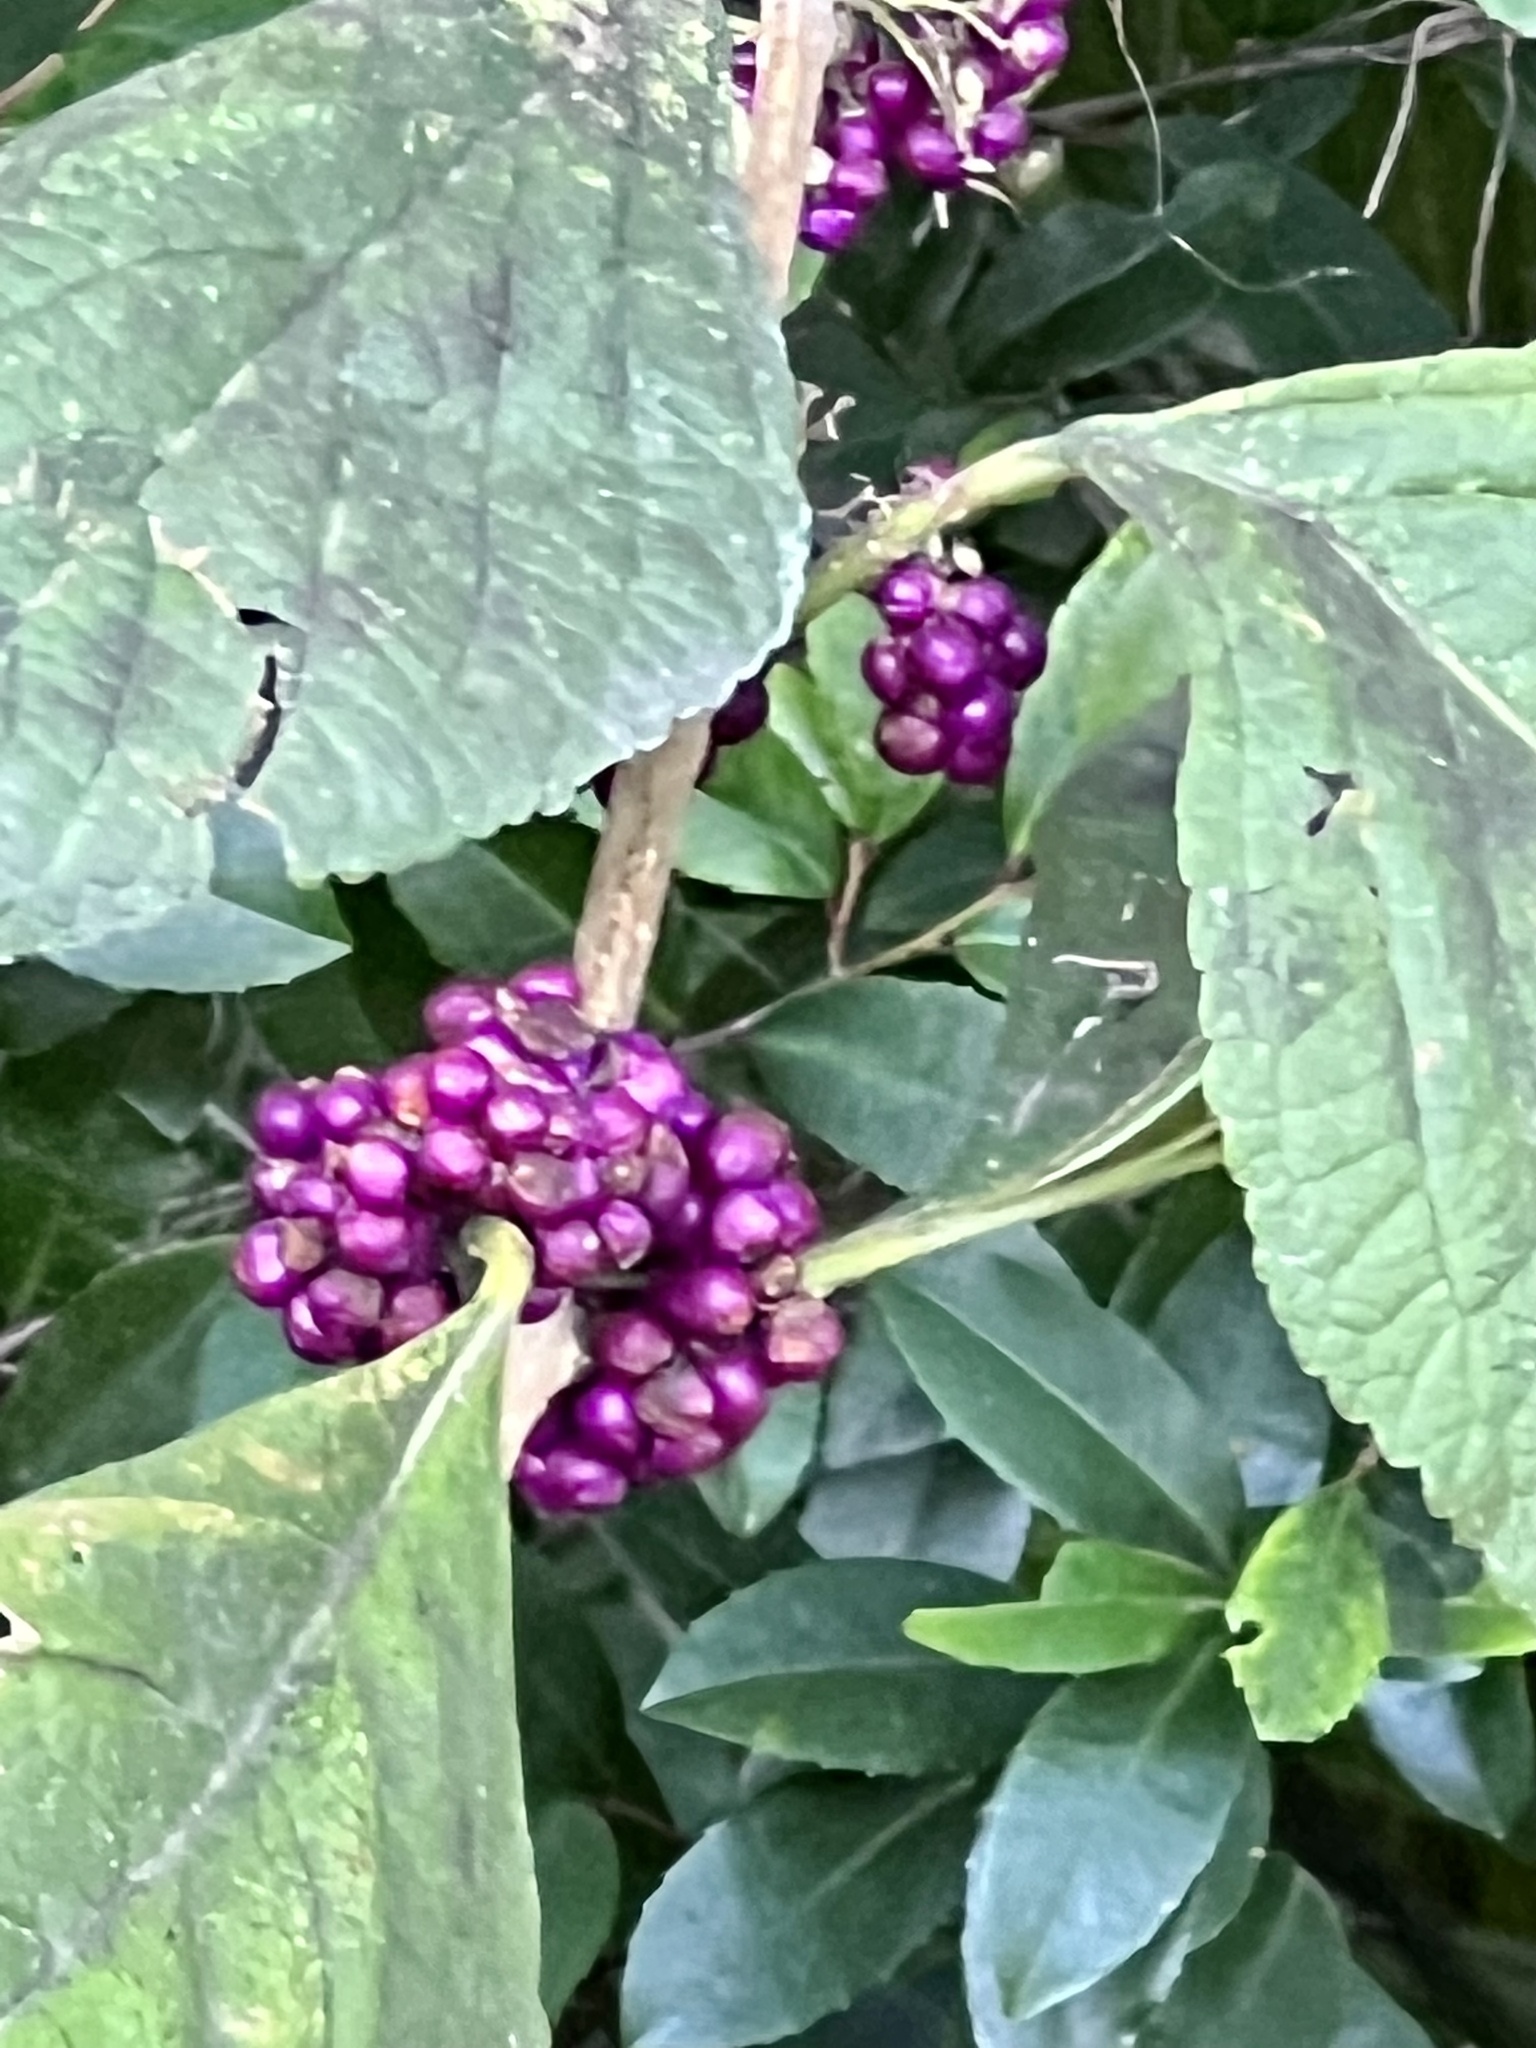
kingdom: Plantae
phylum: Tracheophyta
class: Magnoliopsida
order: Lamiales
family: Lamiaceae
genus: Callicarpa
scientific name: Callicarpa americana
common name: American beautyberry
